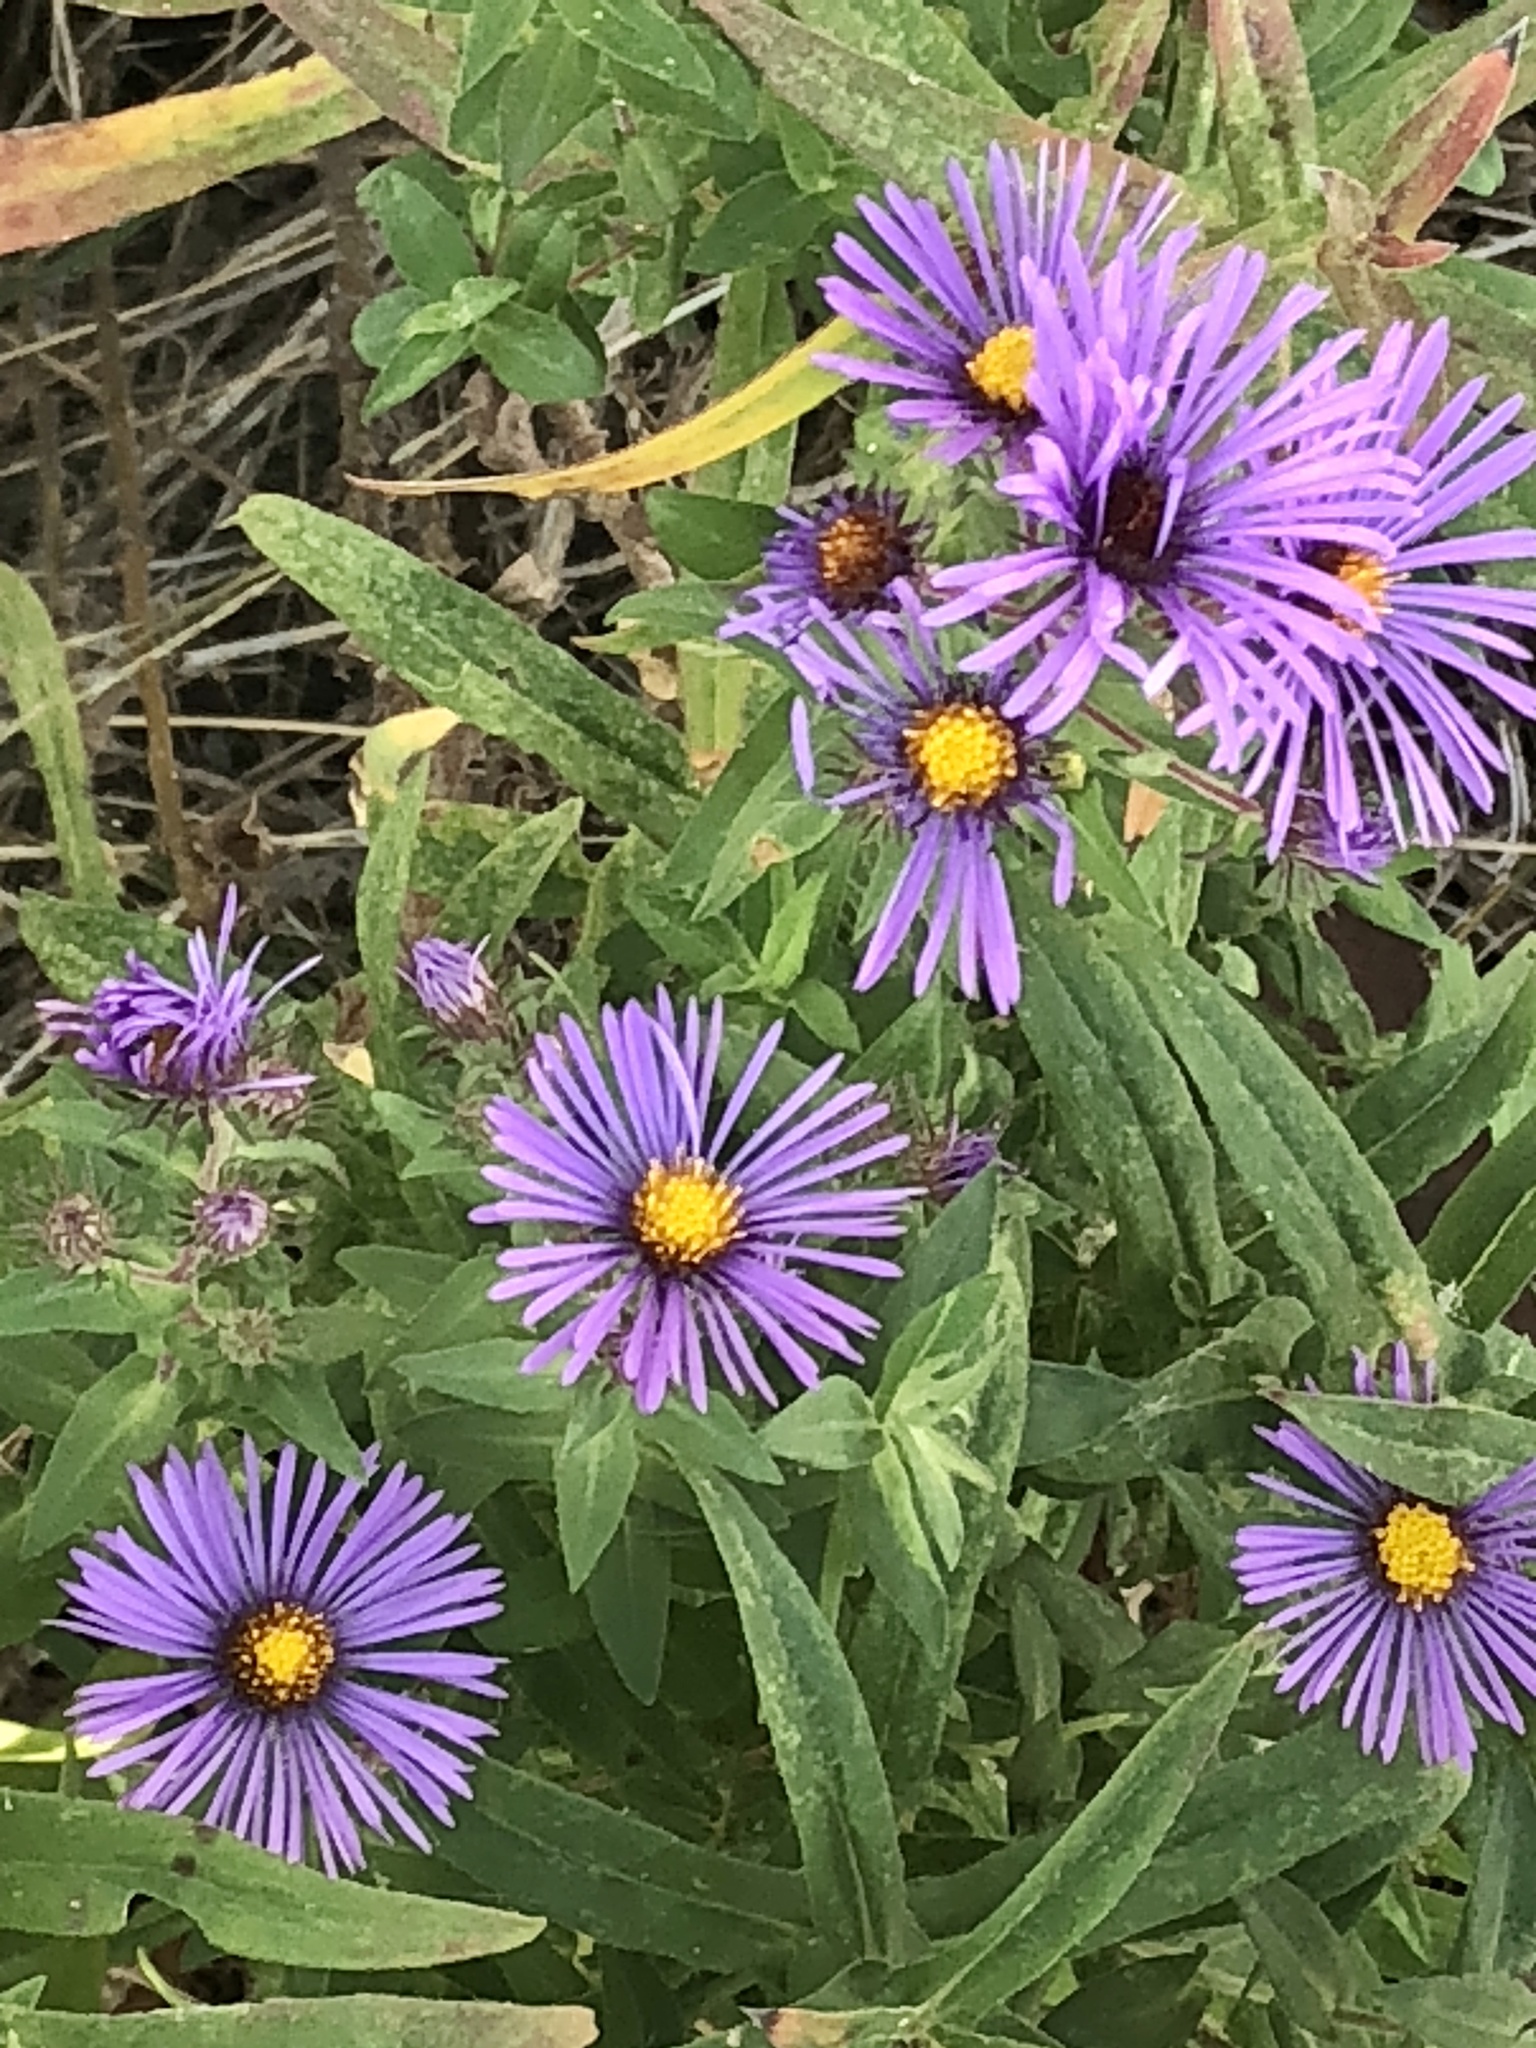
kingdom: Plantae
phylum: Tracheophyta
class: Magnoliopsida
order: Asterales
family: Asteraceae
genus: Symphyotrichum
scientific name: Symphyotrichum novae-angliae
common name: Michaelmas daisy
